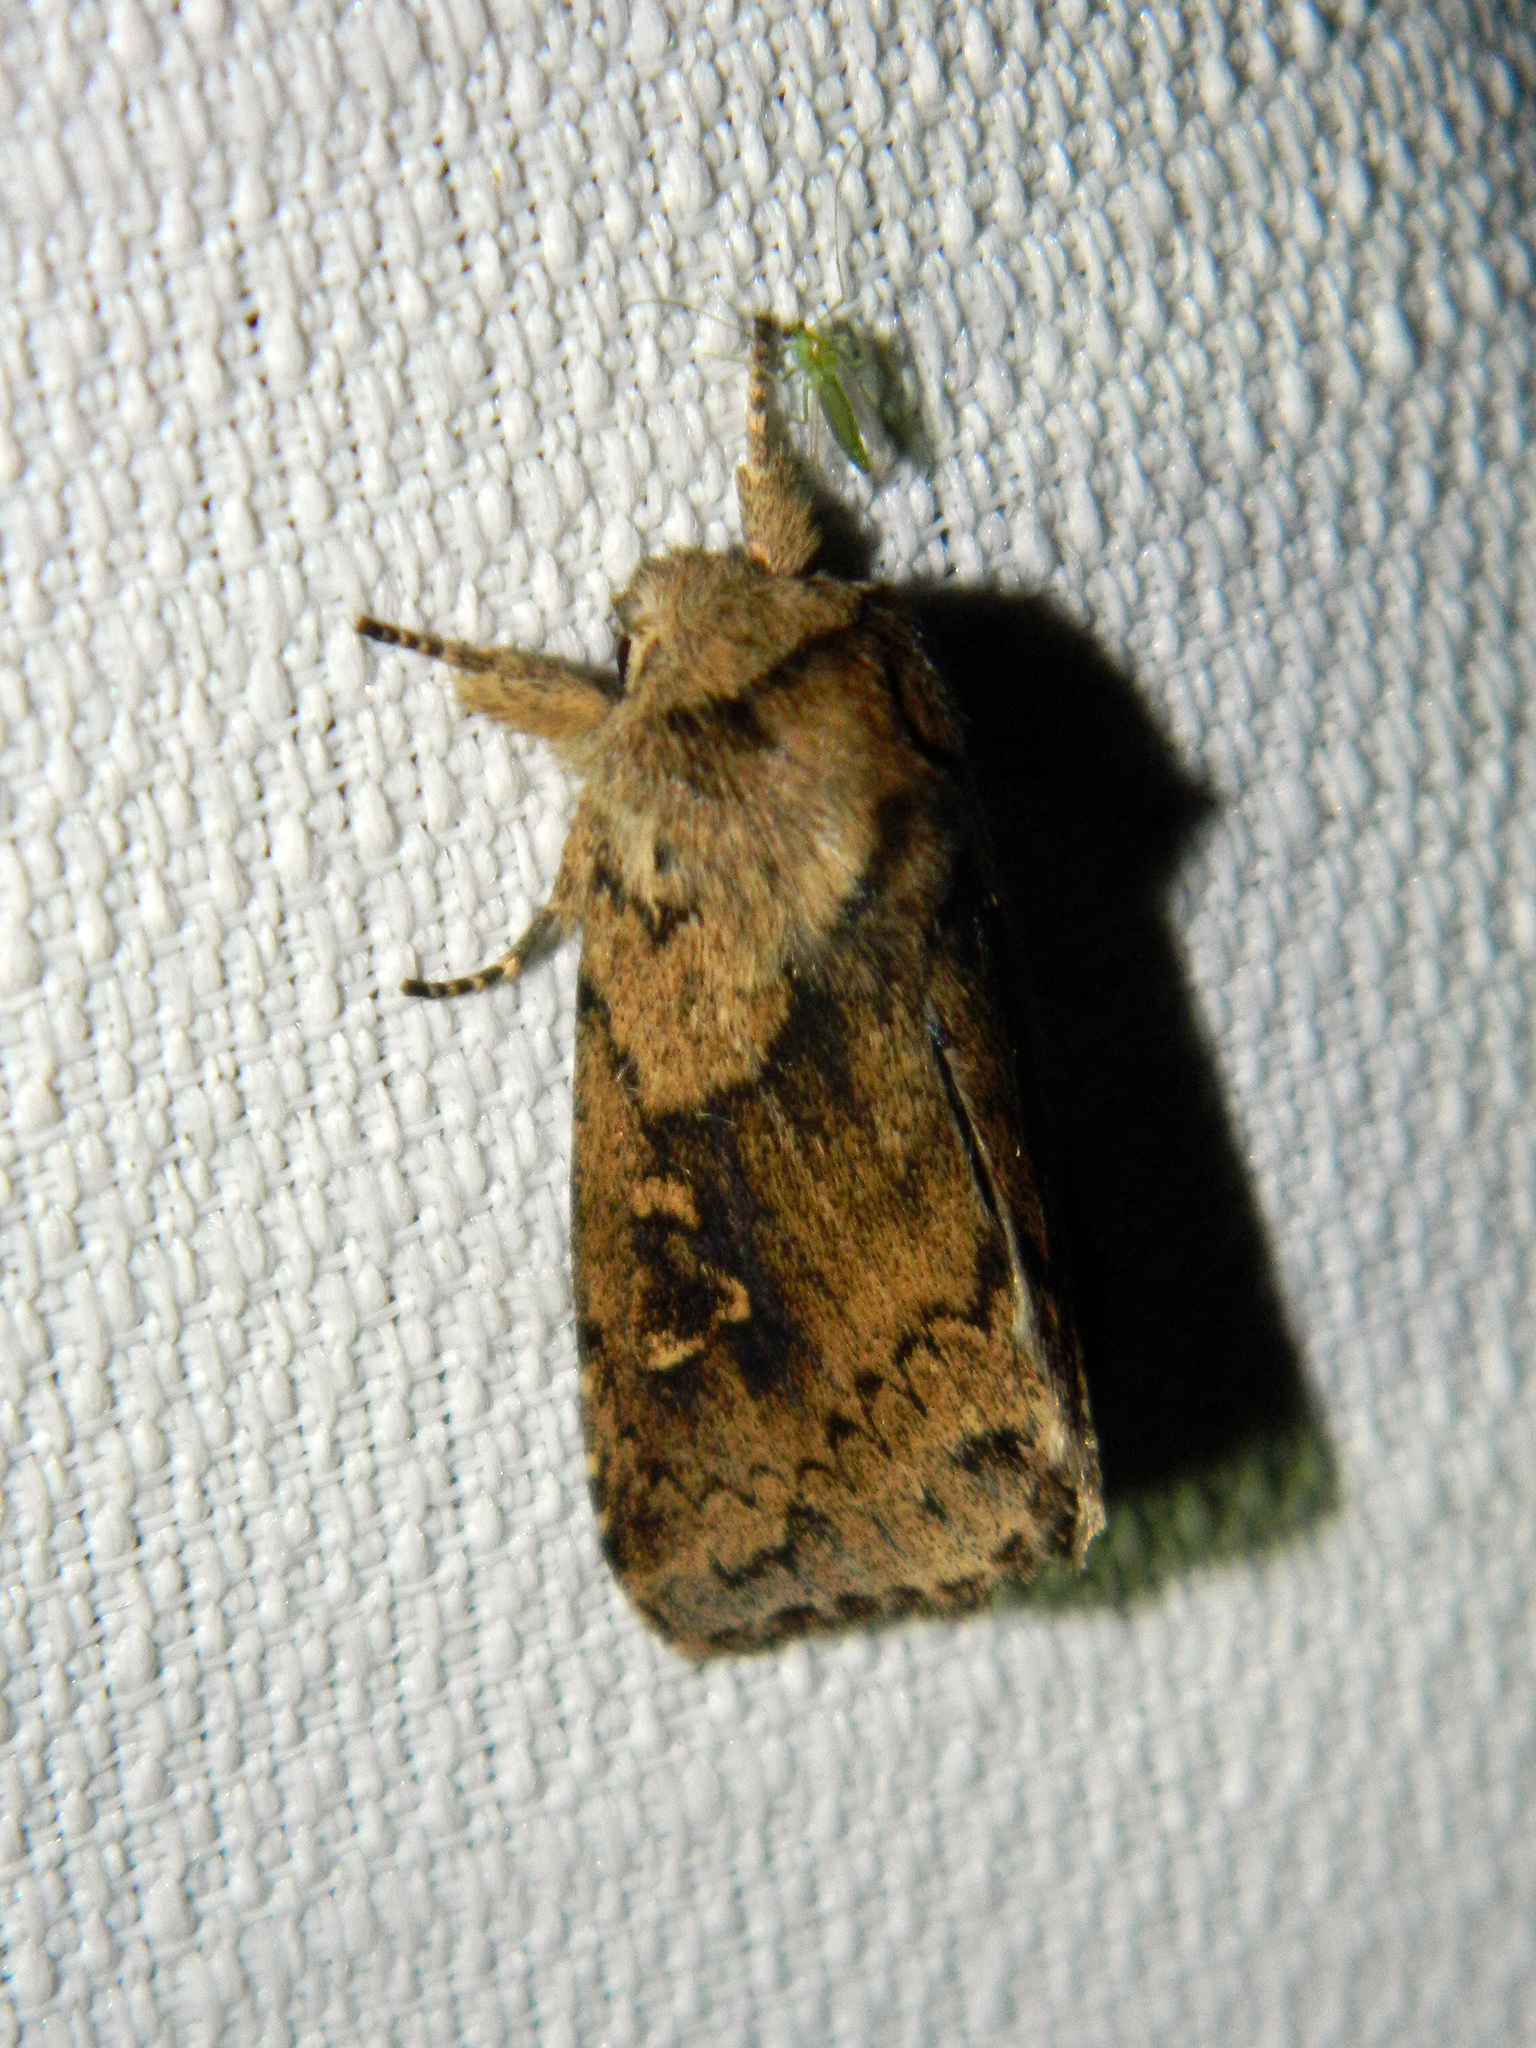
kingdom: Animalia
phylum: Arthropoda
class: Insecta
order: Lepidoptera
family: Noctuidae
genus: Bellura
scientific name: Bellura vulnifica
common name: Black-tailed diver moth
